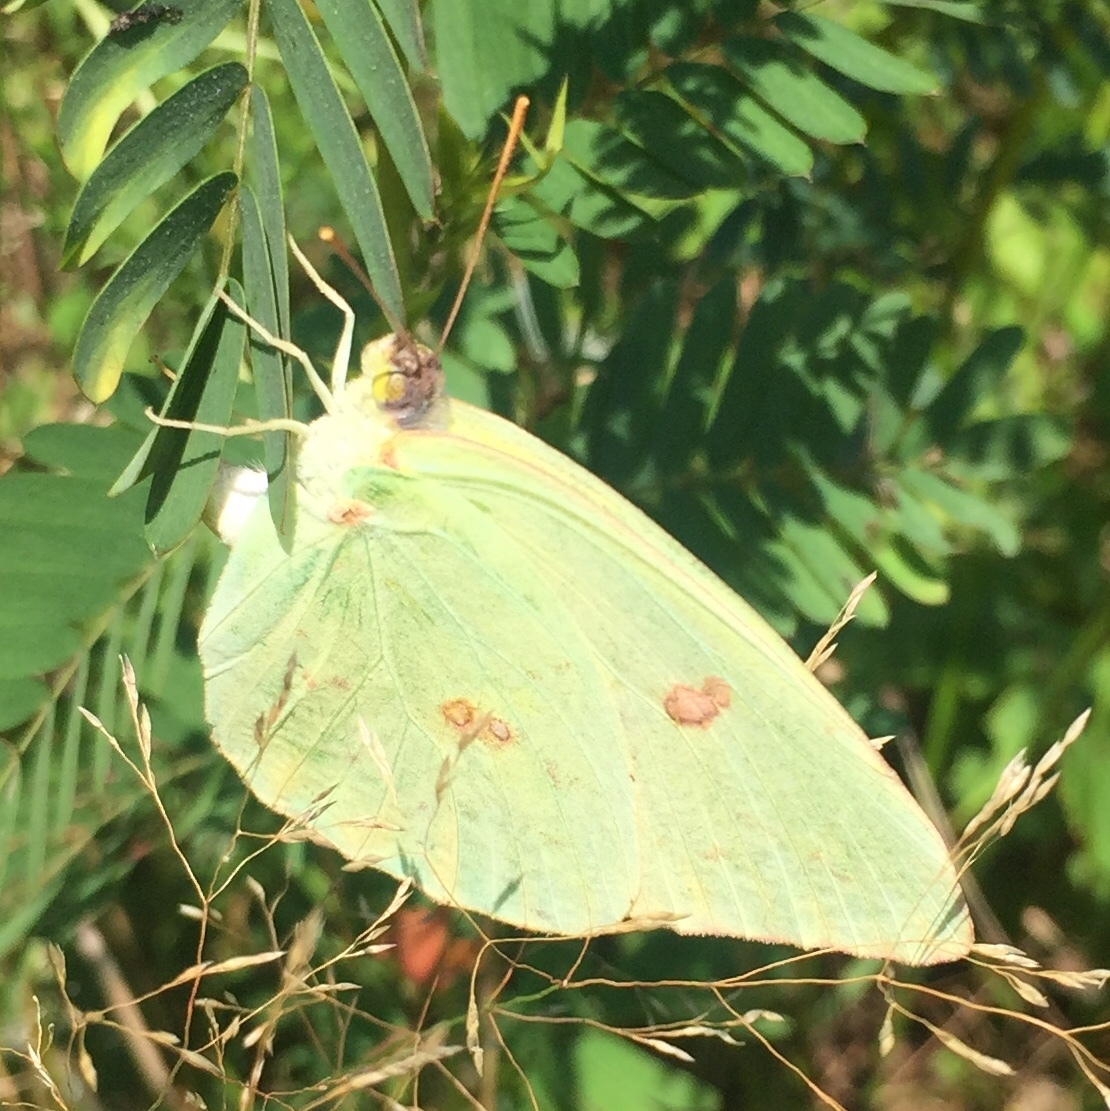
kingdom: Animalia
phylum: Arthropoda
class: Insecta
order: Lepidoptera
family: Pieridae
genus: Phoebis
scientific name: Phoebis sennae
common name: Cloudless sulphur
